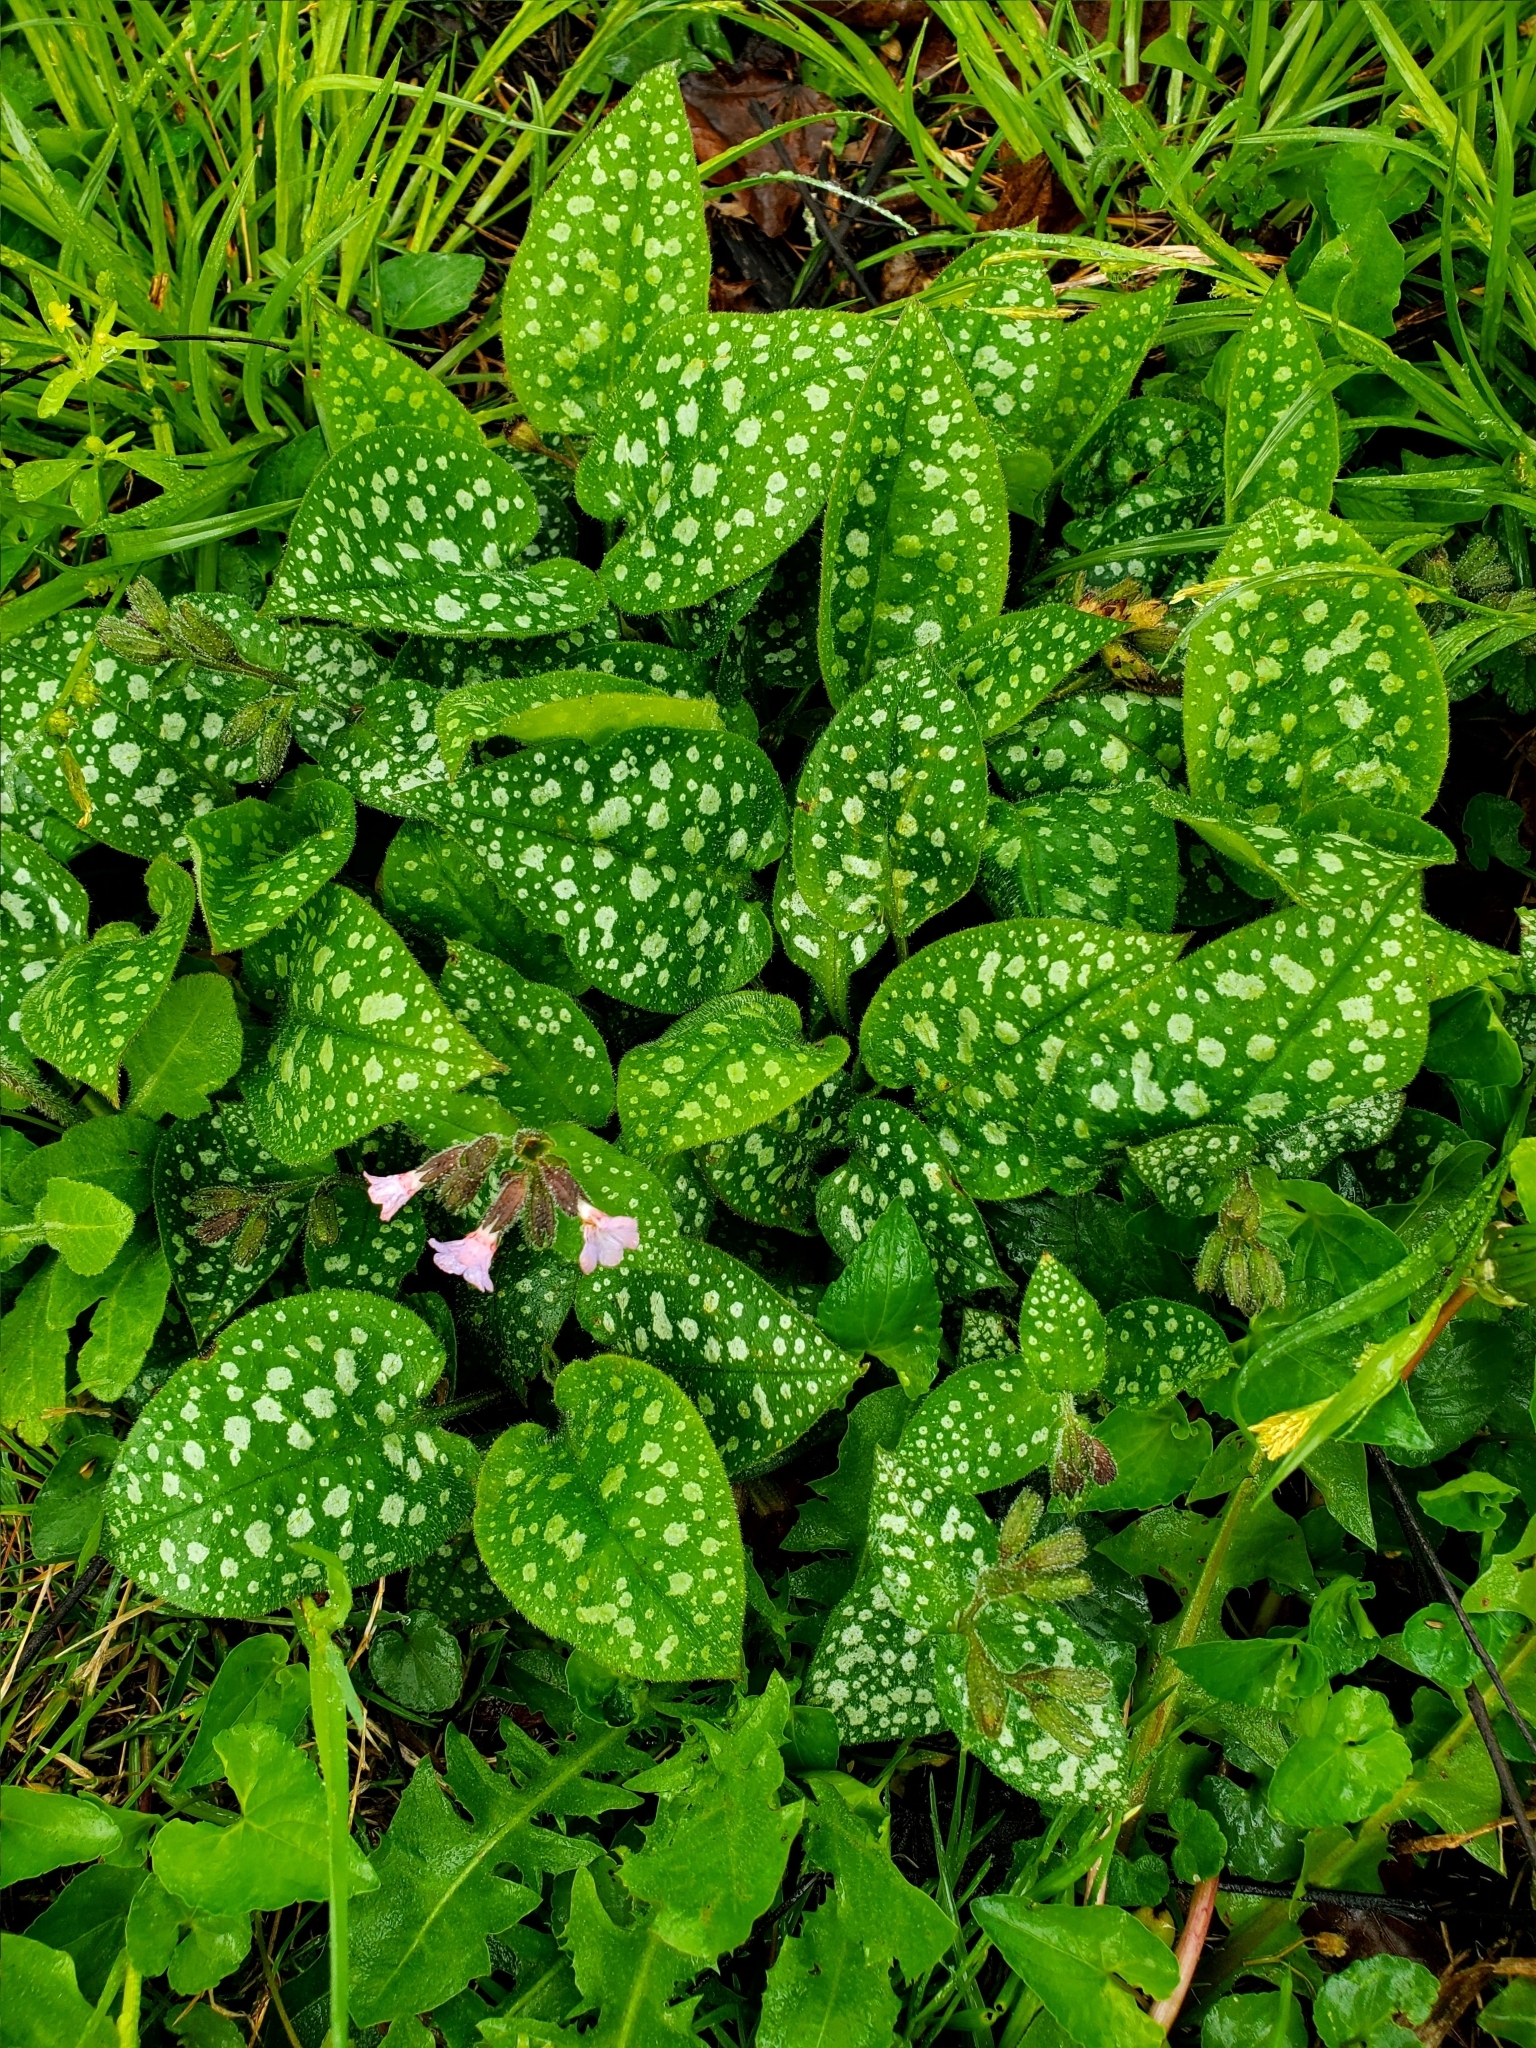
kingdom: Plantae
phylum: Tracheophyta
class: Magnoliopsida
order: Boraginales
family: Boraginaceae
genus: Pulmonaria
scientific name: Pulmonaria officinalis
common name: Lungwort
